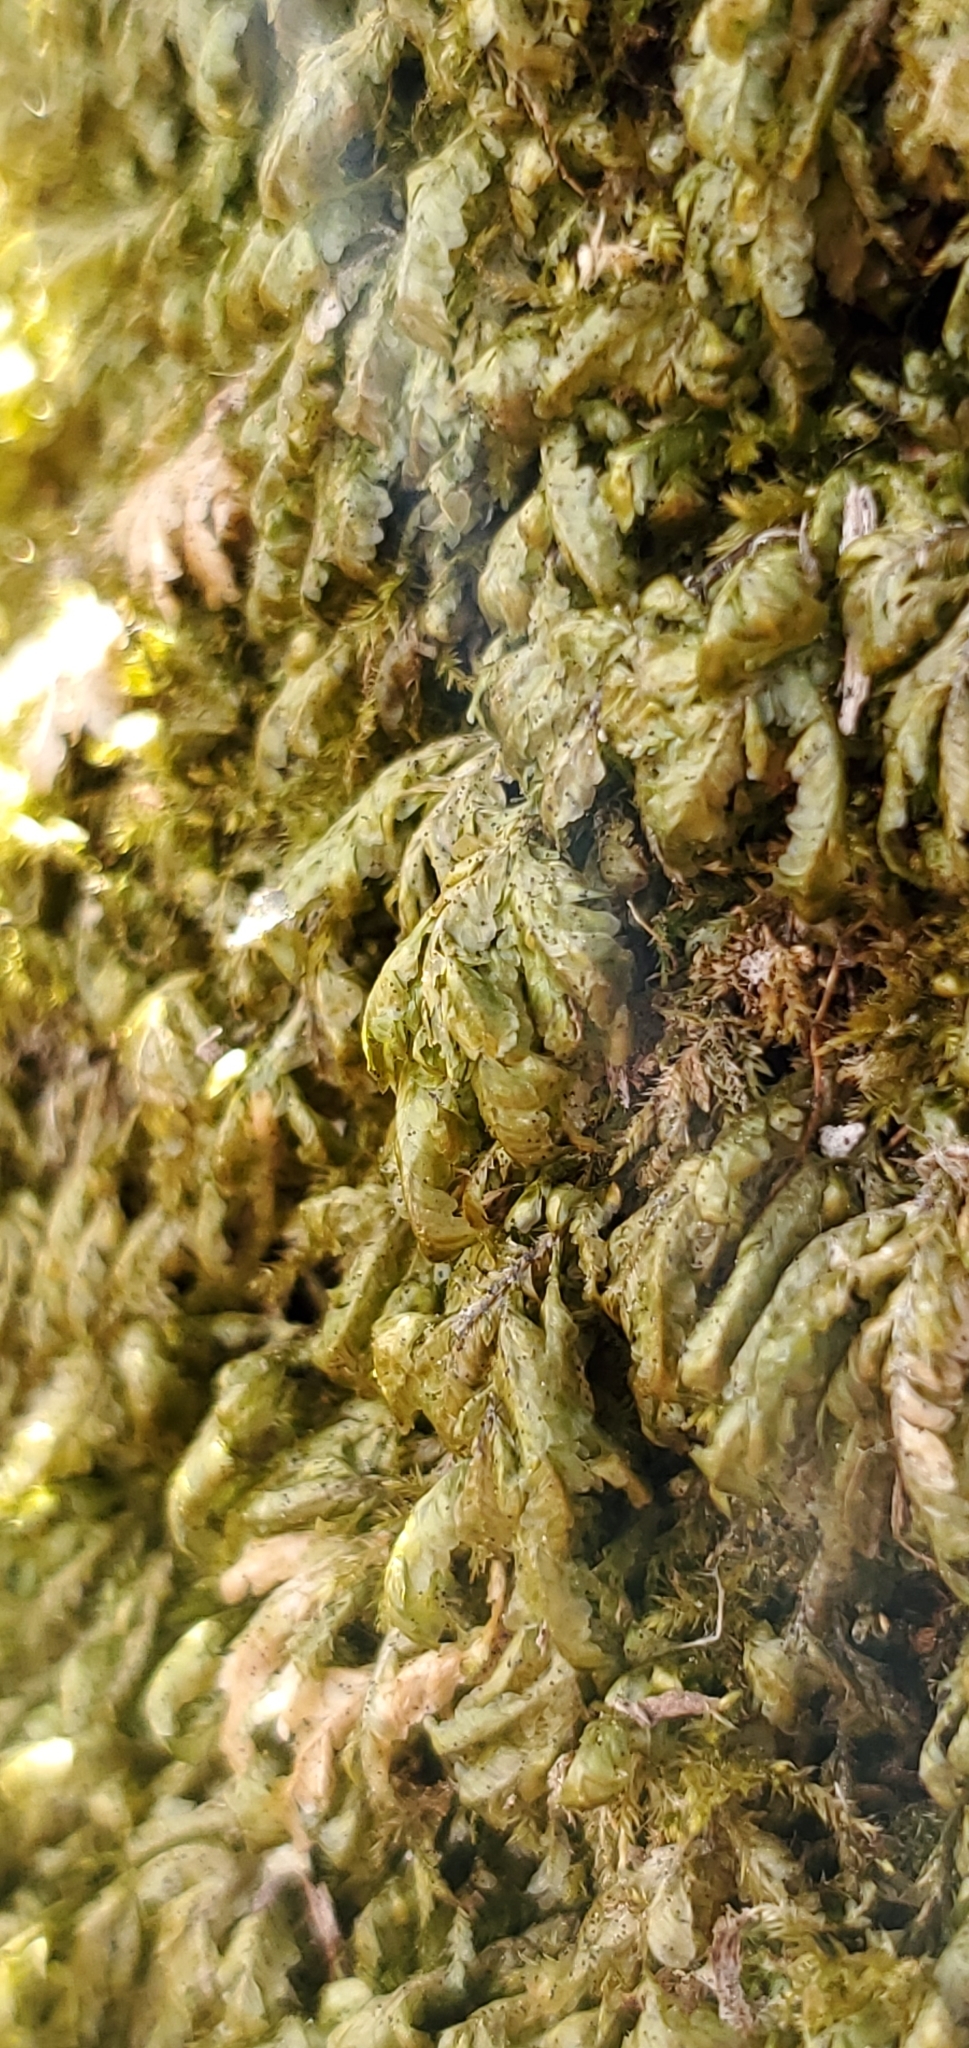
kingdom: Plantae
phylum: Bryophyta
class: Bryopsida
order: Hypnales
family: Neckeraceae
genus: Homalia
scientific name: Homalia trichomanoides
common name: Lime homalia moss
